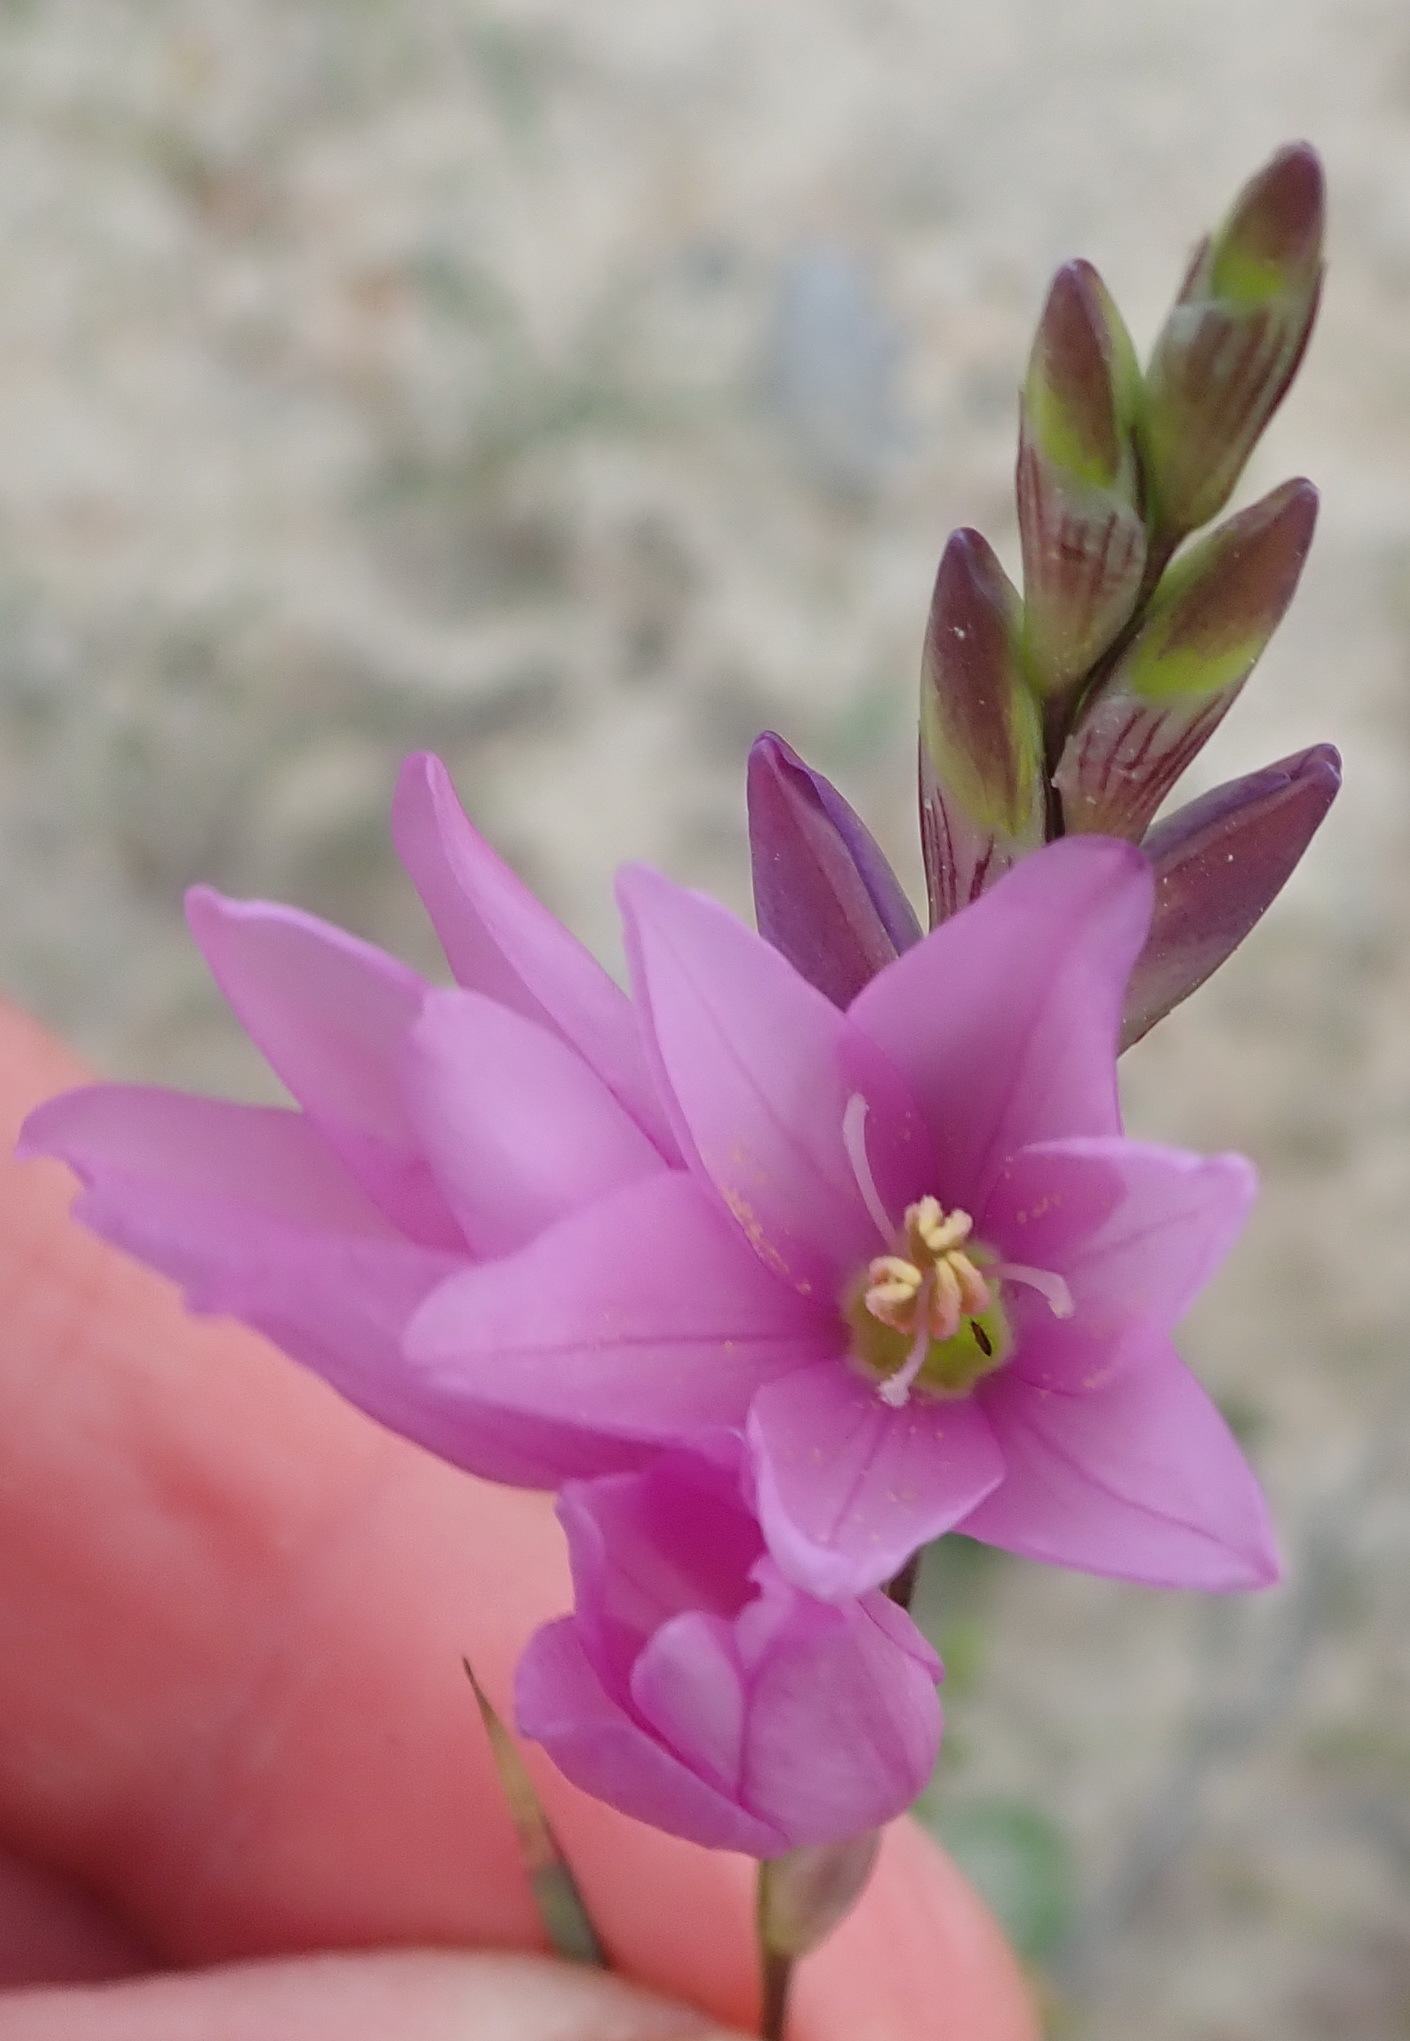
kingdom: Plantae
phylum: Tracheophyta
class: Liliopsida
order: Asparagales
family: Iridaceae
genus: Ixia
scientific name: Ixia flexuosa
